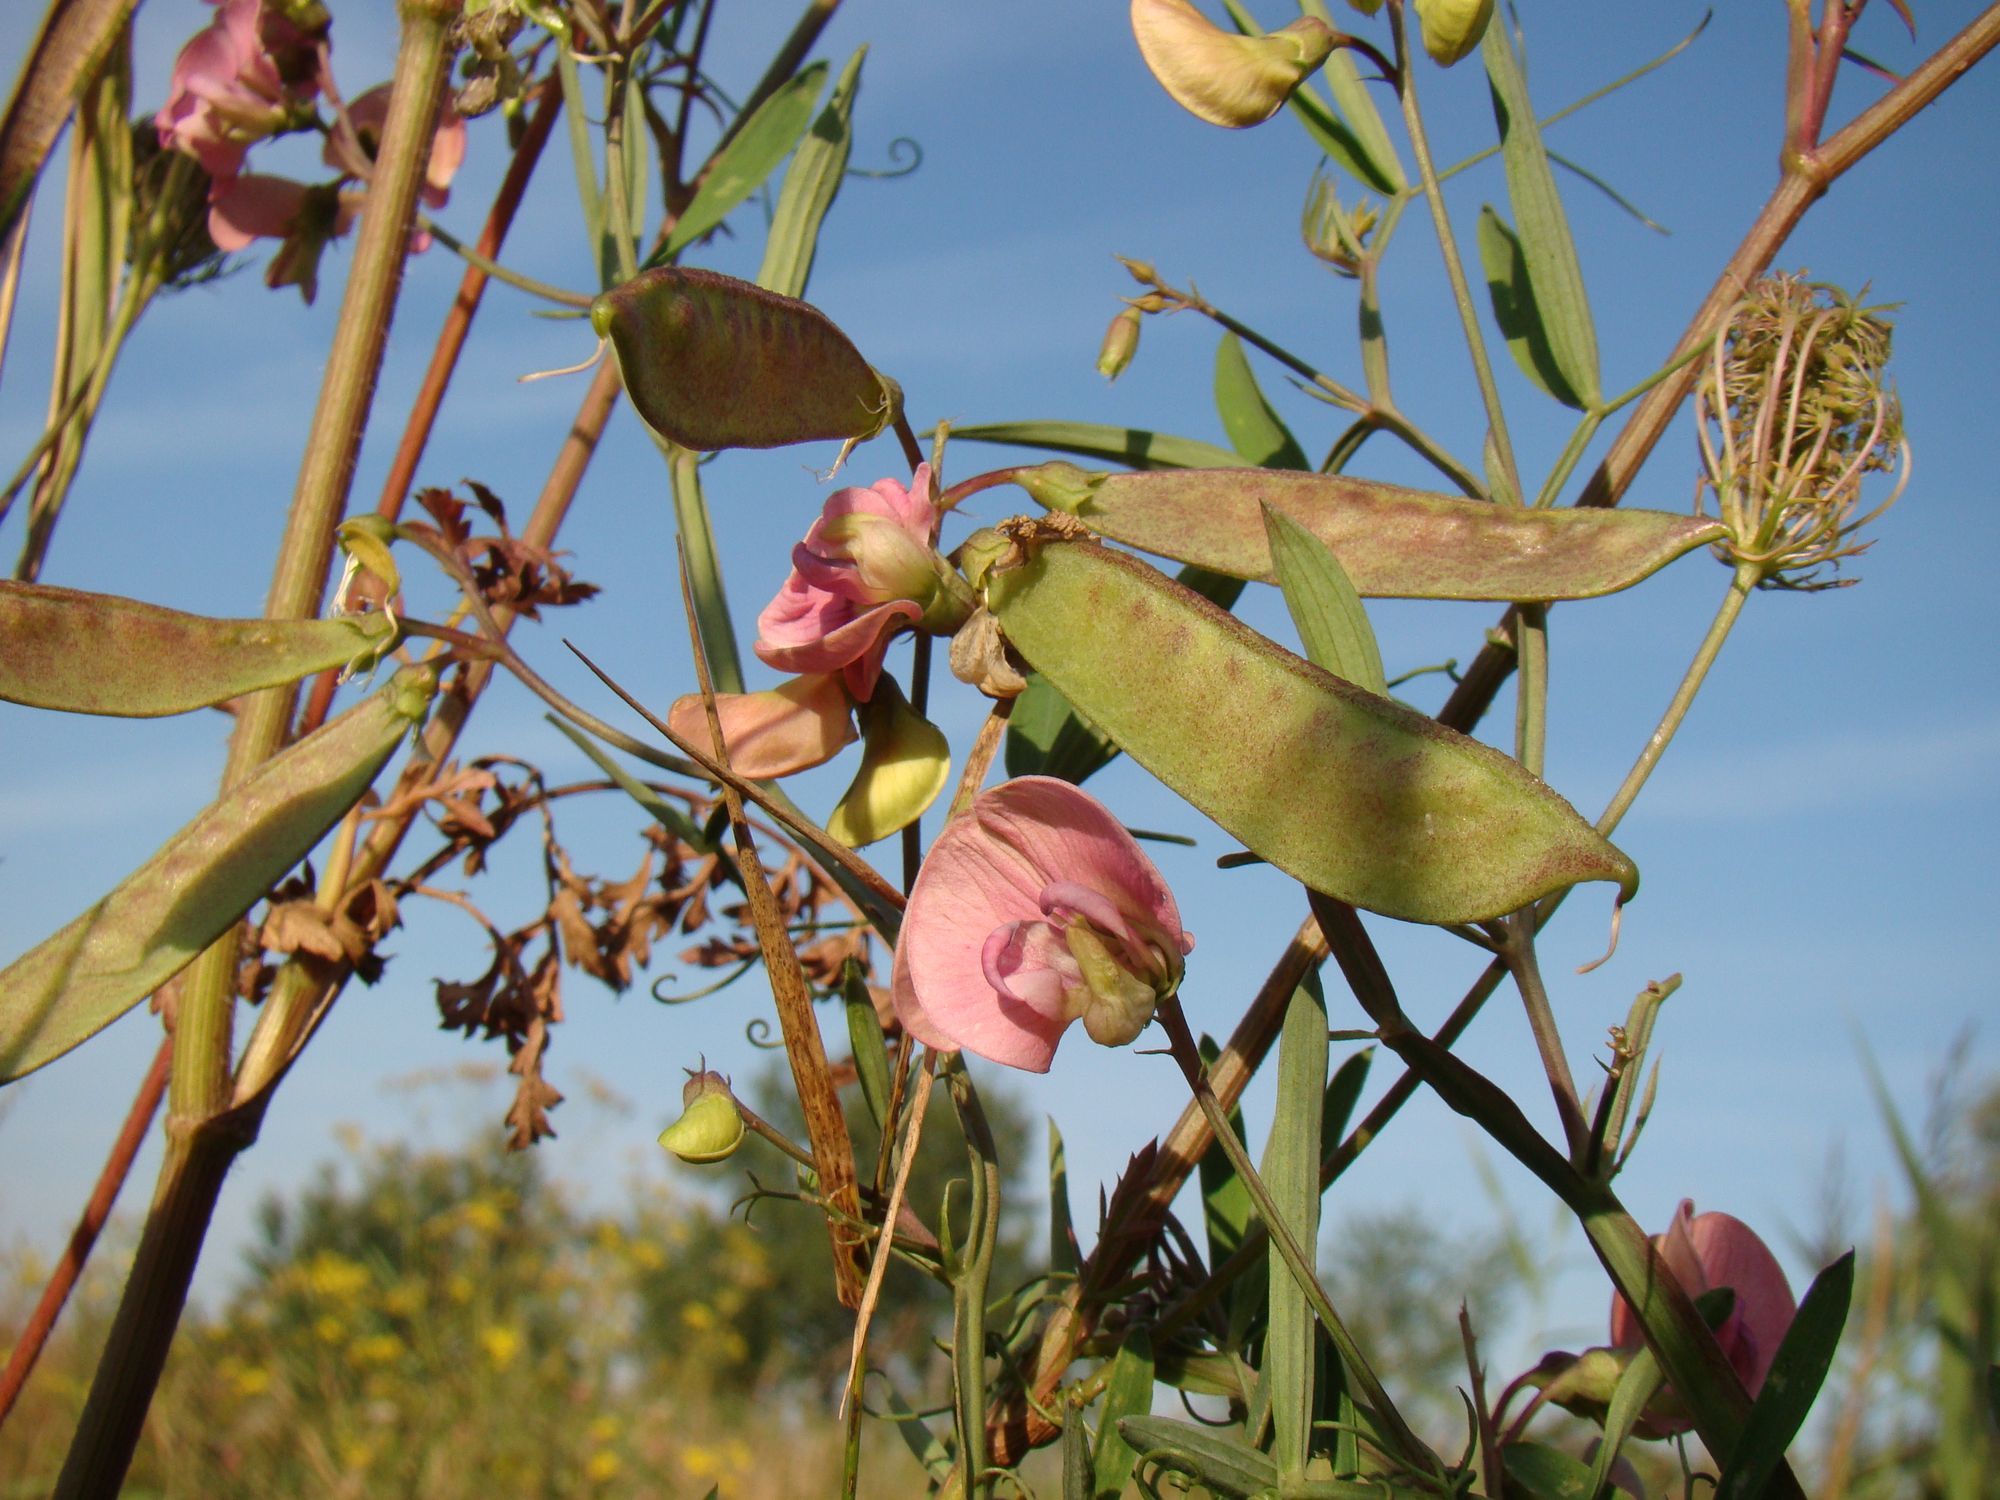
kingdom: Plantae
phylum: Tracheophyta
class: Magnoliopsida
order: Fabales
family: Fabaceae
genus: Lathyrus
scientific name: Lathyrus sylvestris
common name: Flat pea
